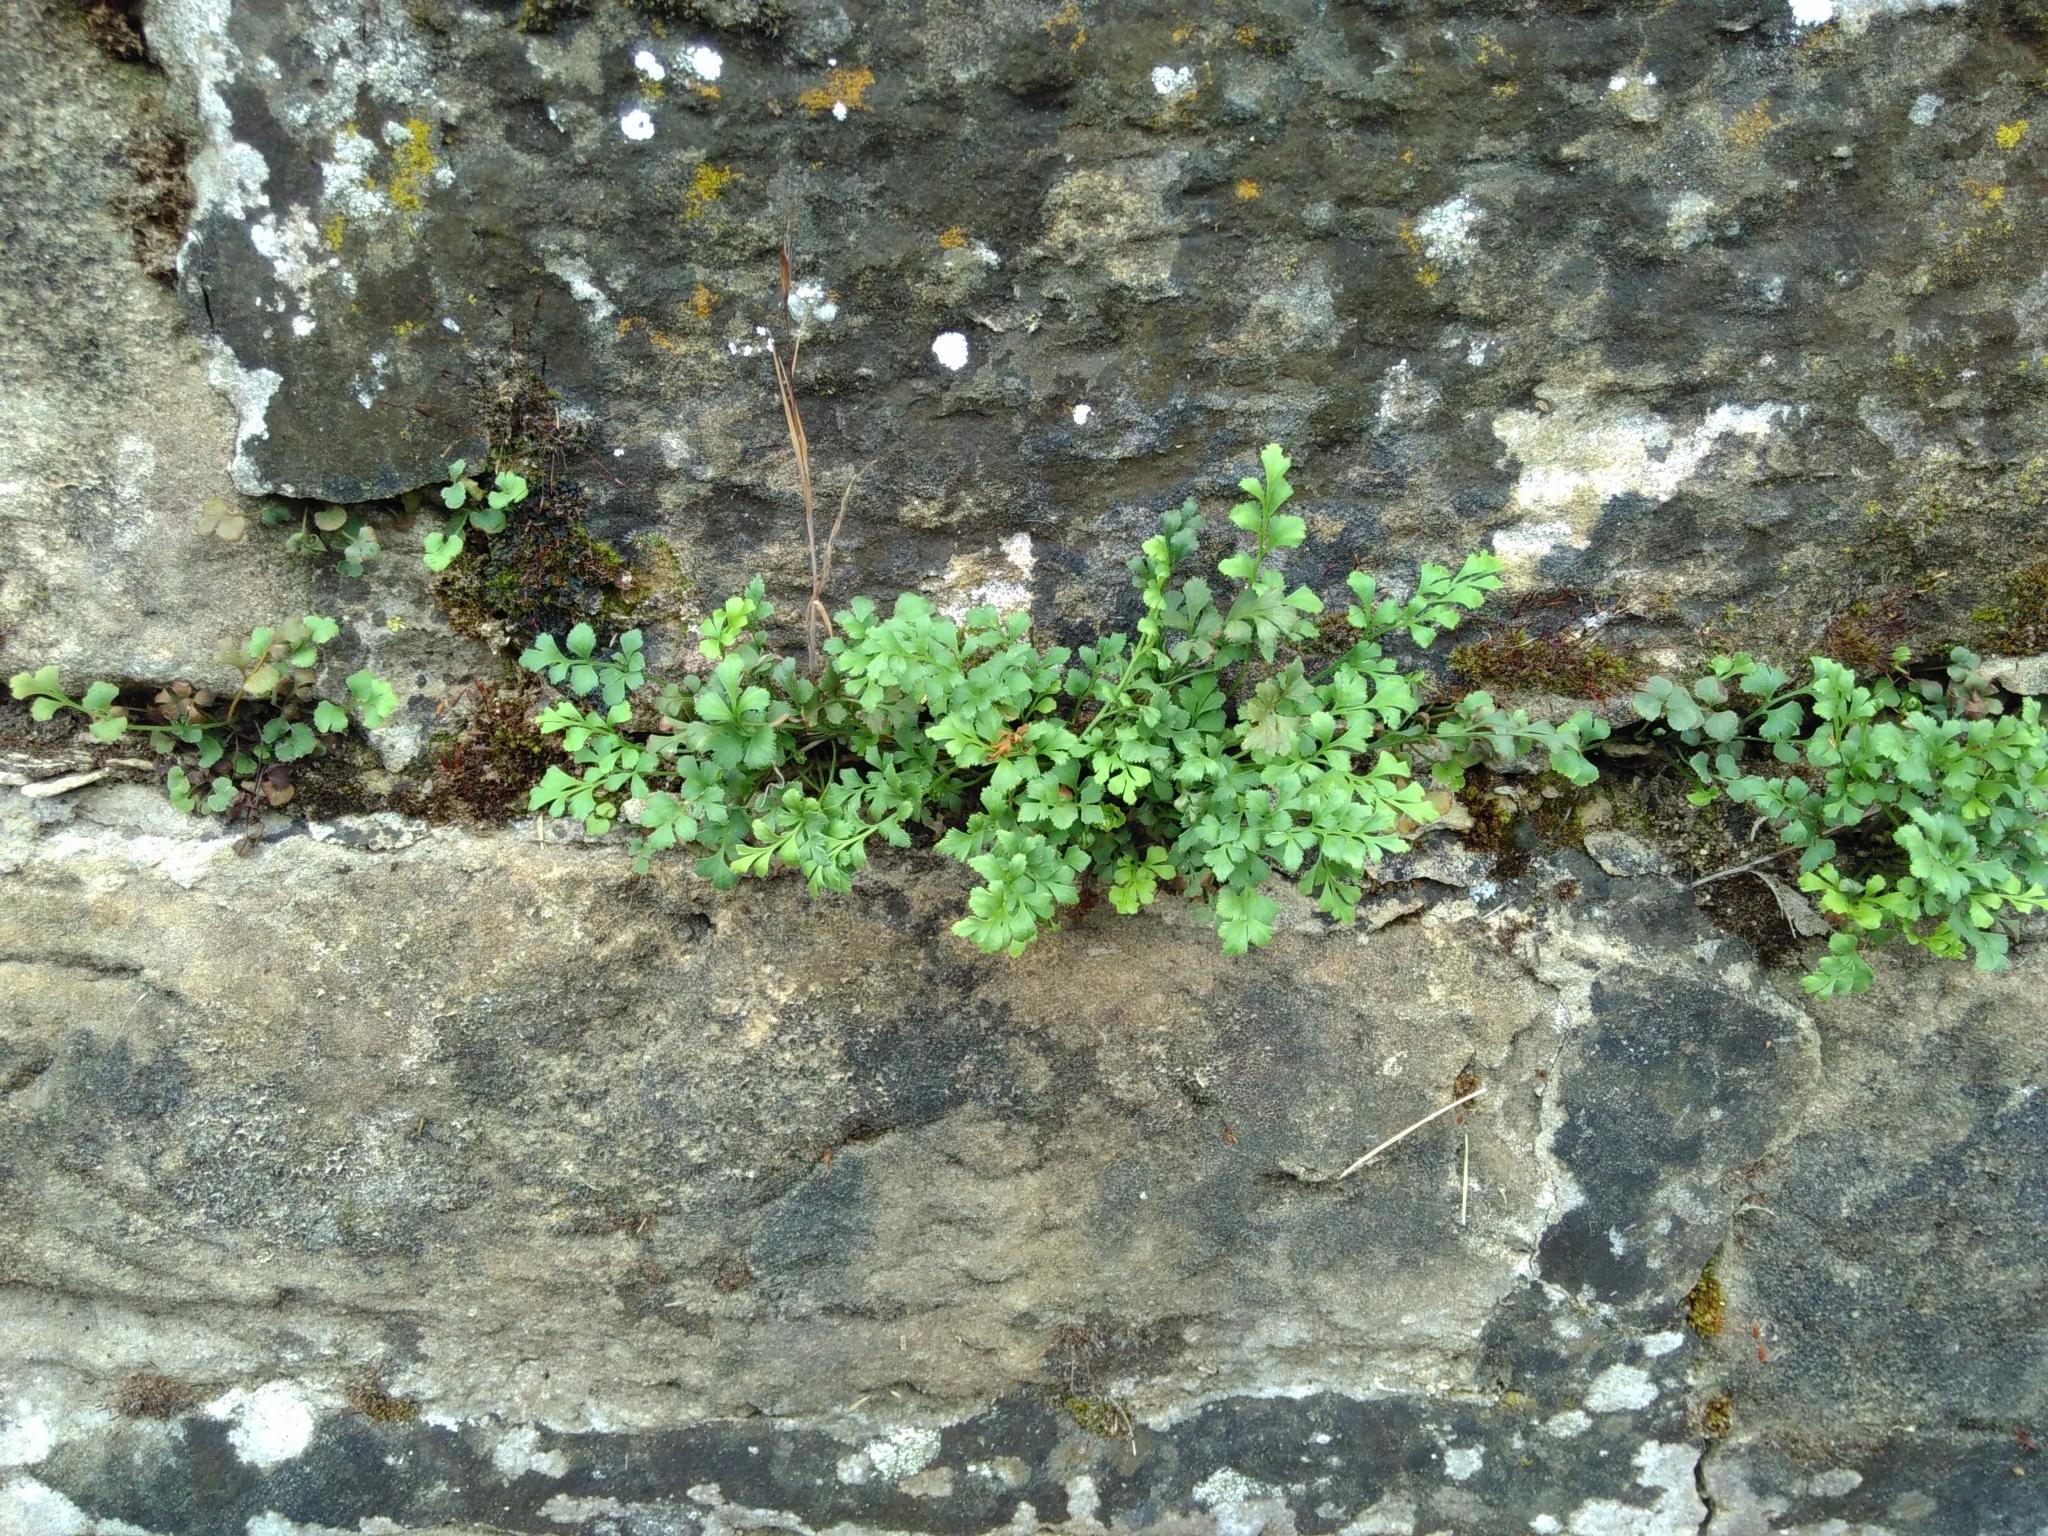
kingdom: Plantae
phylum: Tracheophyta
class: Polypodiopsida
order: Polypodiales
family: Aspleniaceae
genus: Asplenium
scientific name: Asplenium ruta-muraria
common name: Wall-rue
